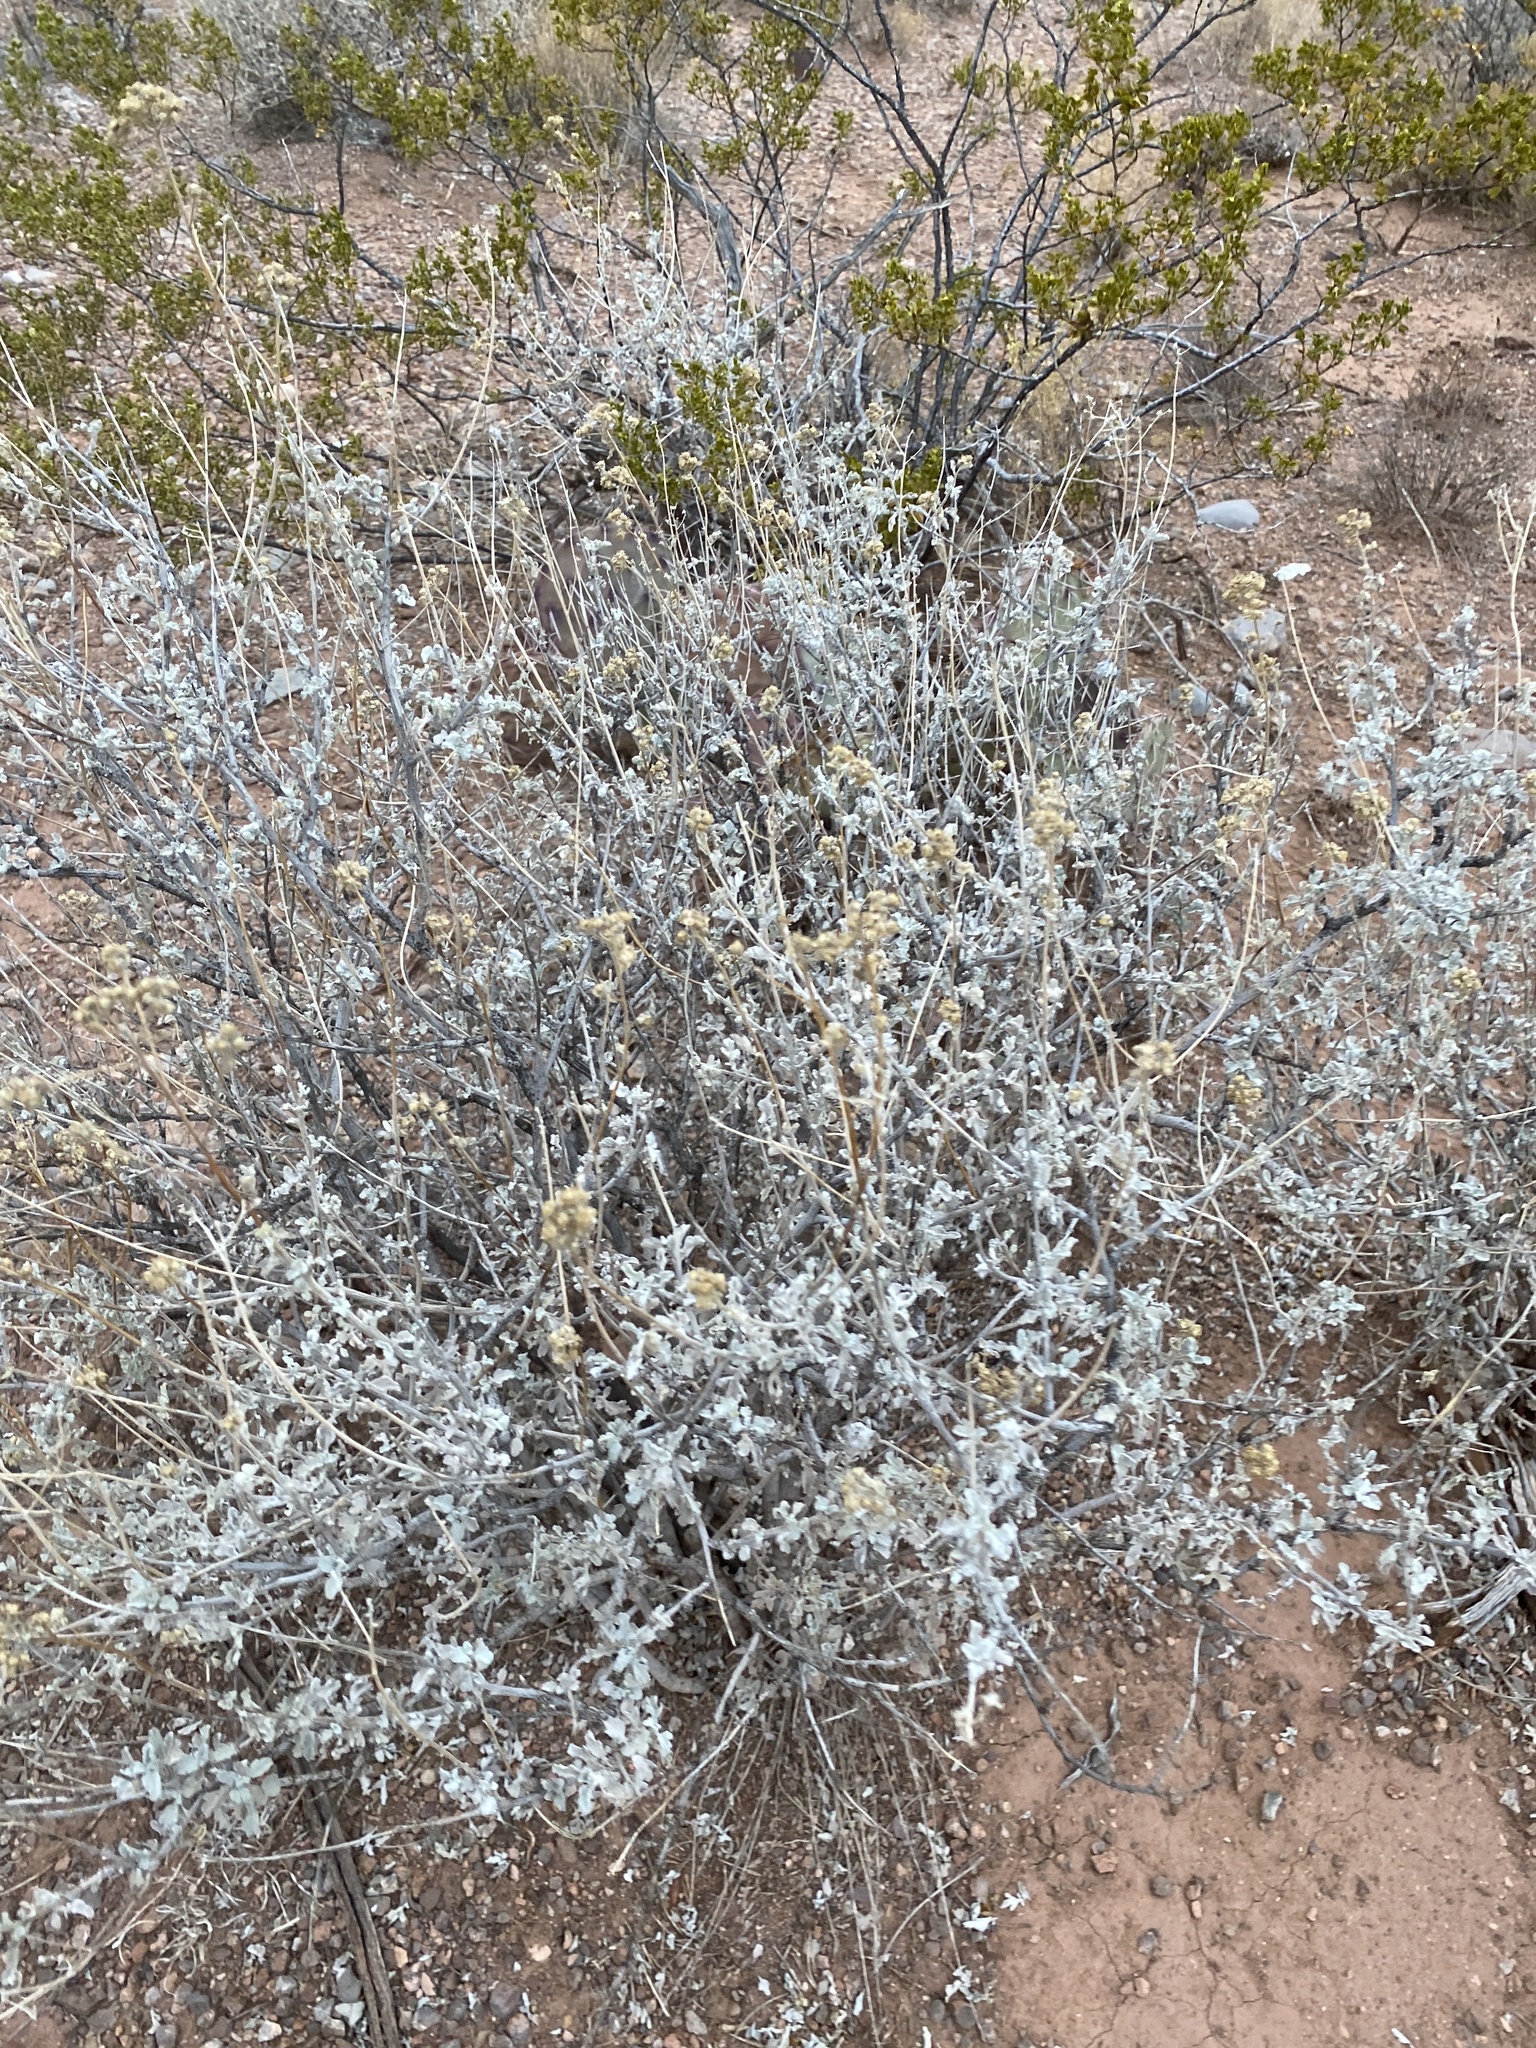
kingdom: Plantae
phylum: Tracheophyta
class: Magnoliopsida
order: Asterales
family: Asteraceae
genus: Parthenium
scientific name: Parthenium incanum
